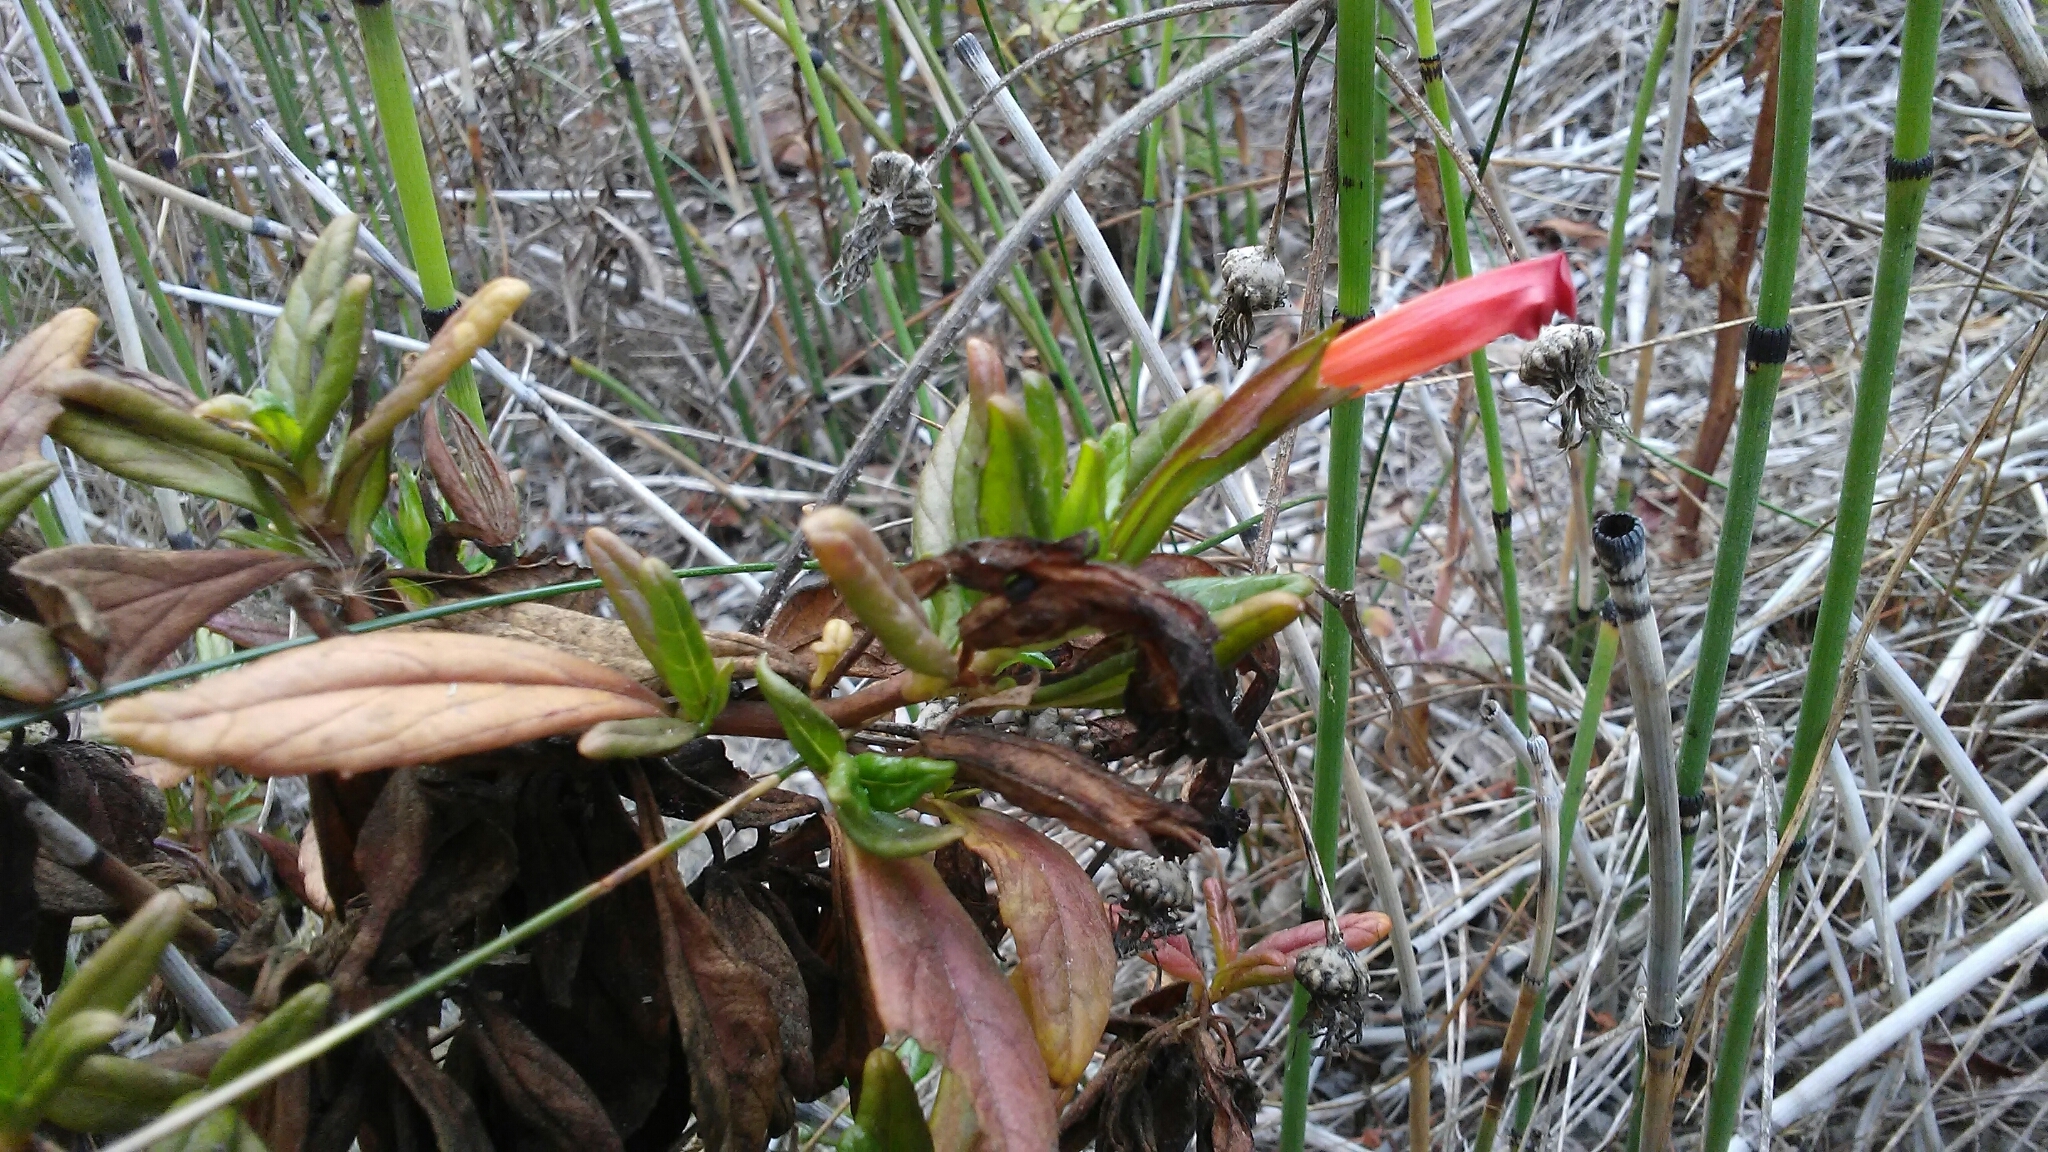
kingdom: Plantae
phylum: Tracheophyta
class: Magnoliopsida
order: Lamiales
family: Phrymaceae
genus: Diplacus
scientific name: Diplacus parviflorus
